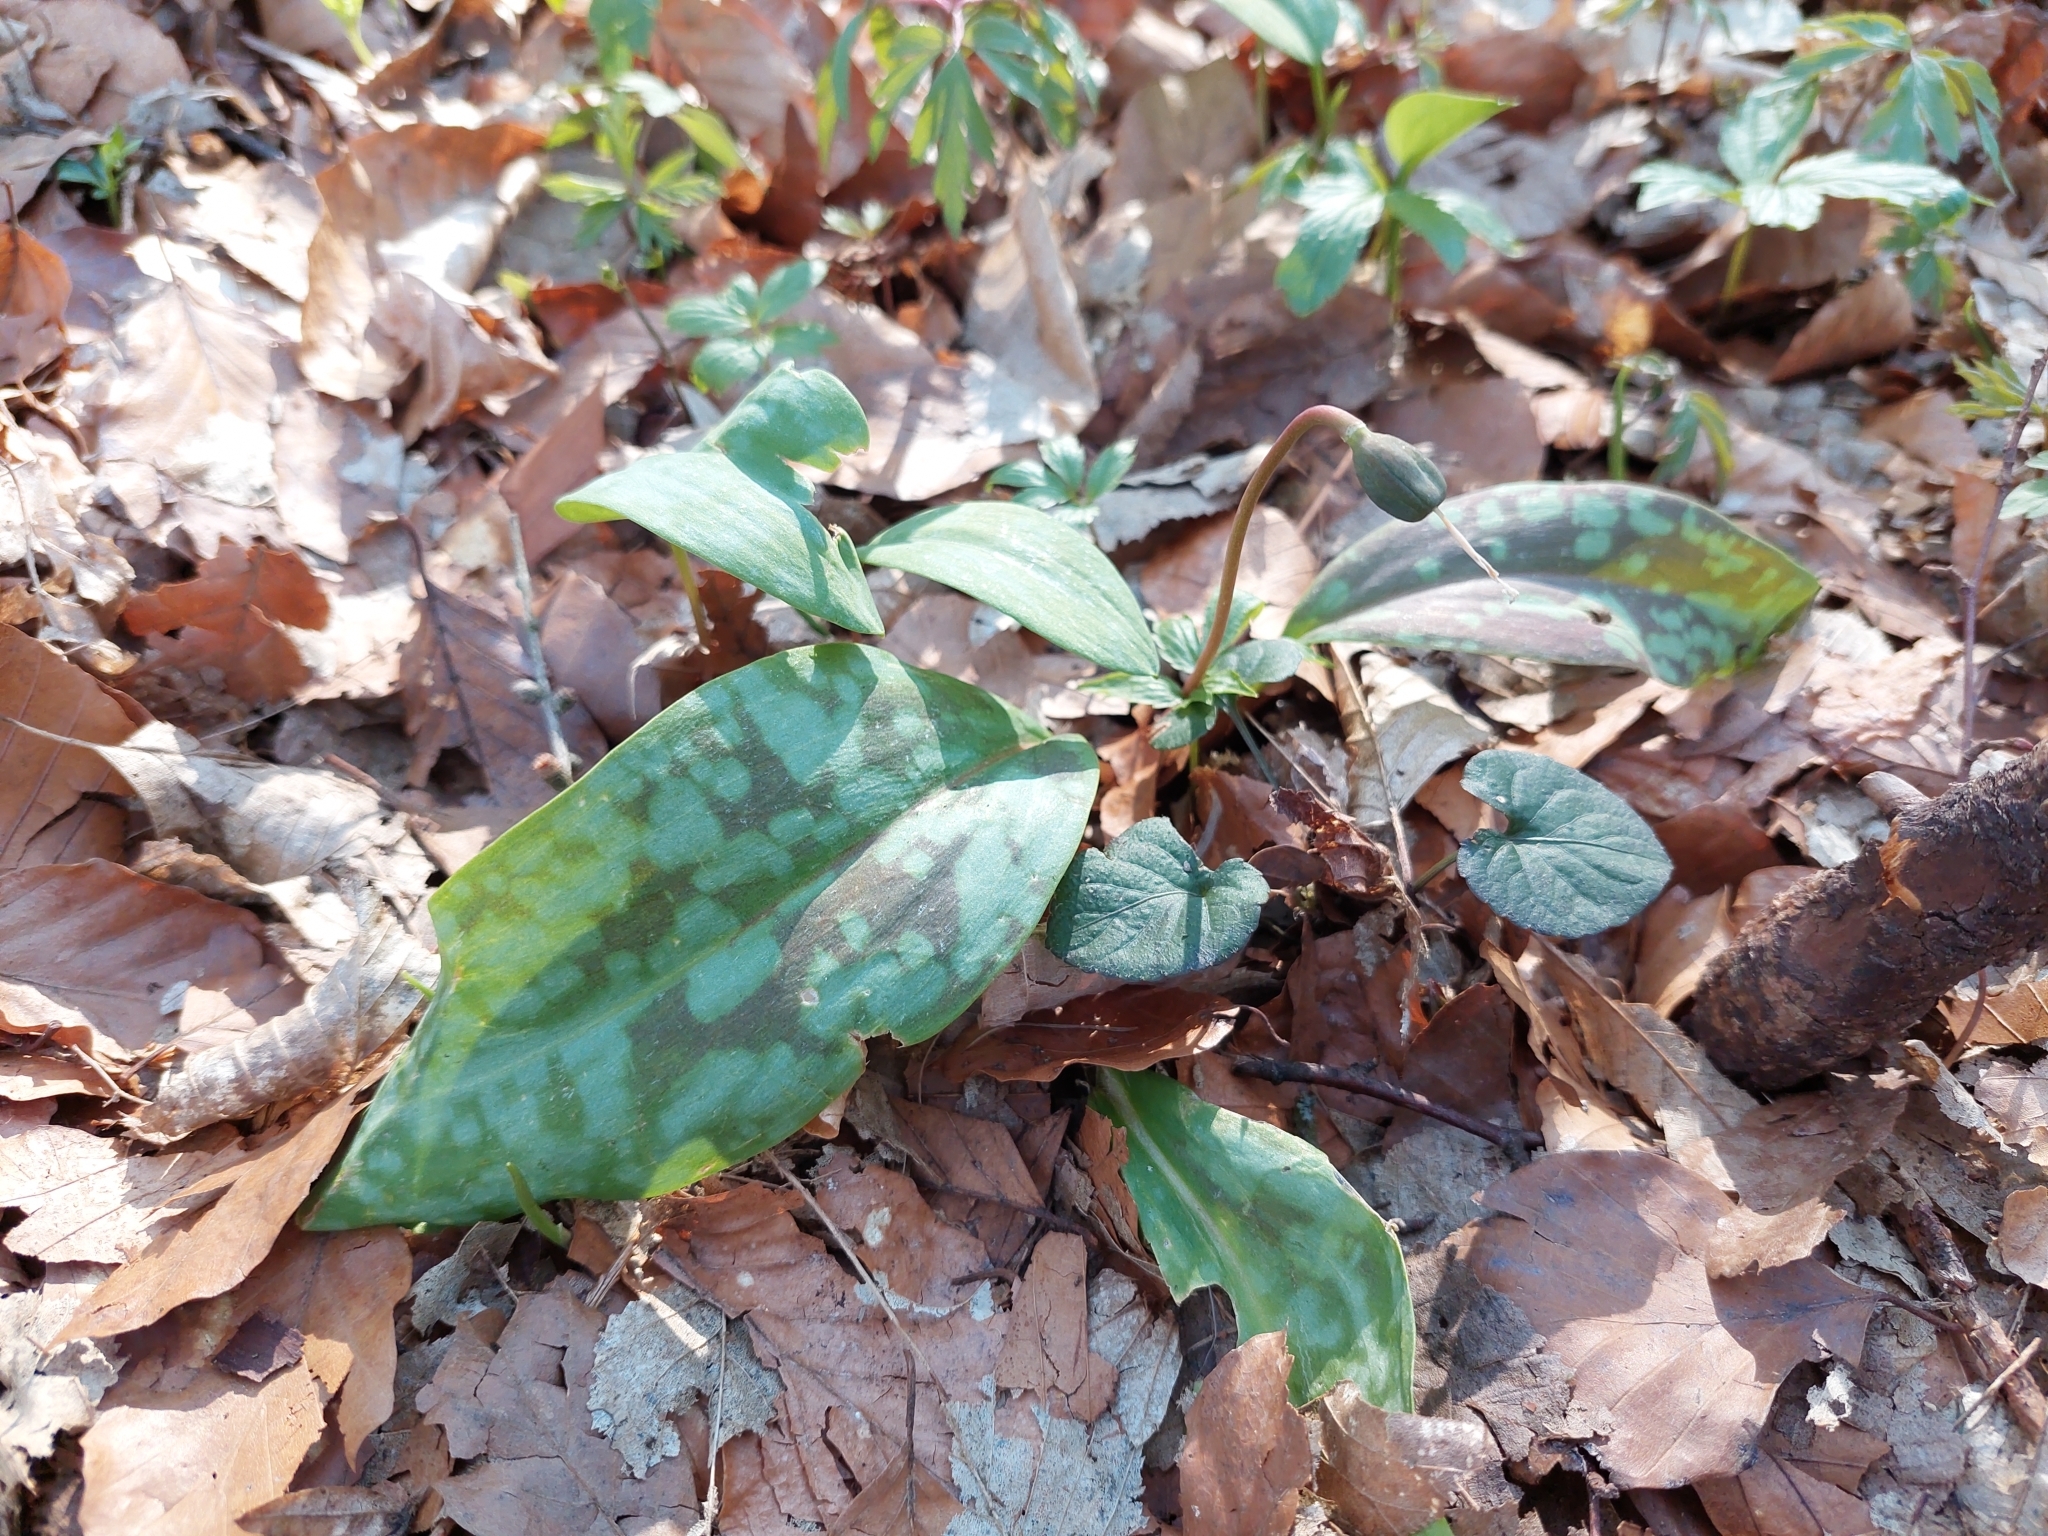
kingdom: Plantae
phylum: Tracheophyta
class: Liliopsida
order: Liliales
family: Liliaceae
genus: Erythronium
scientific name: Erythronium dens-canis
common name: Dog's-tooth-violet
